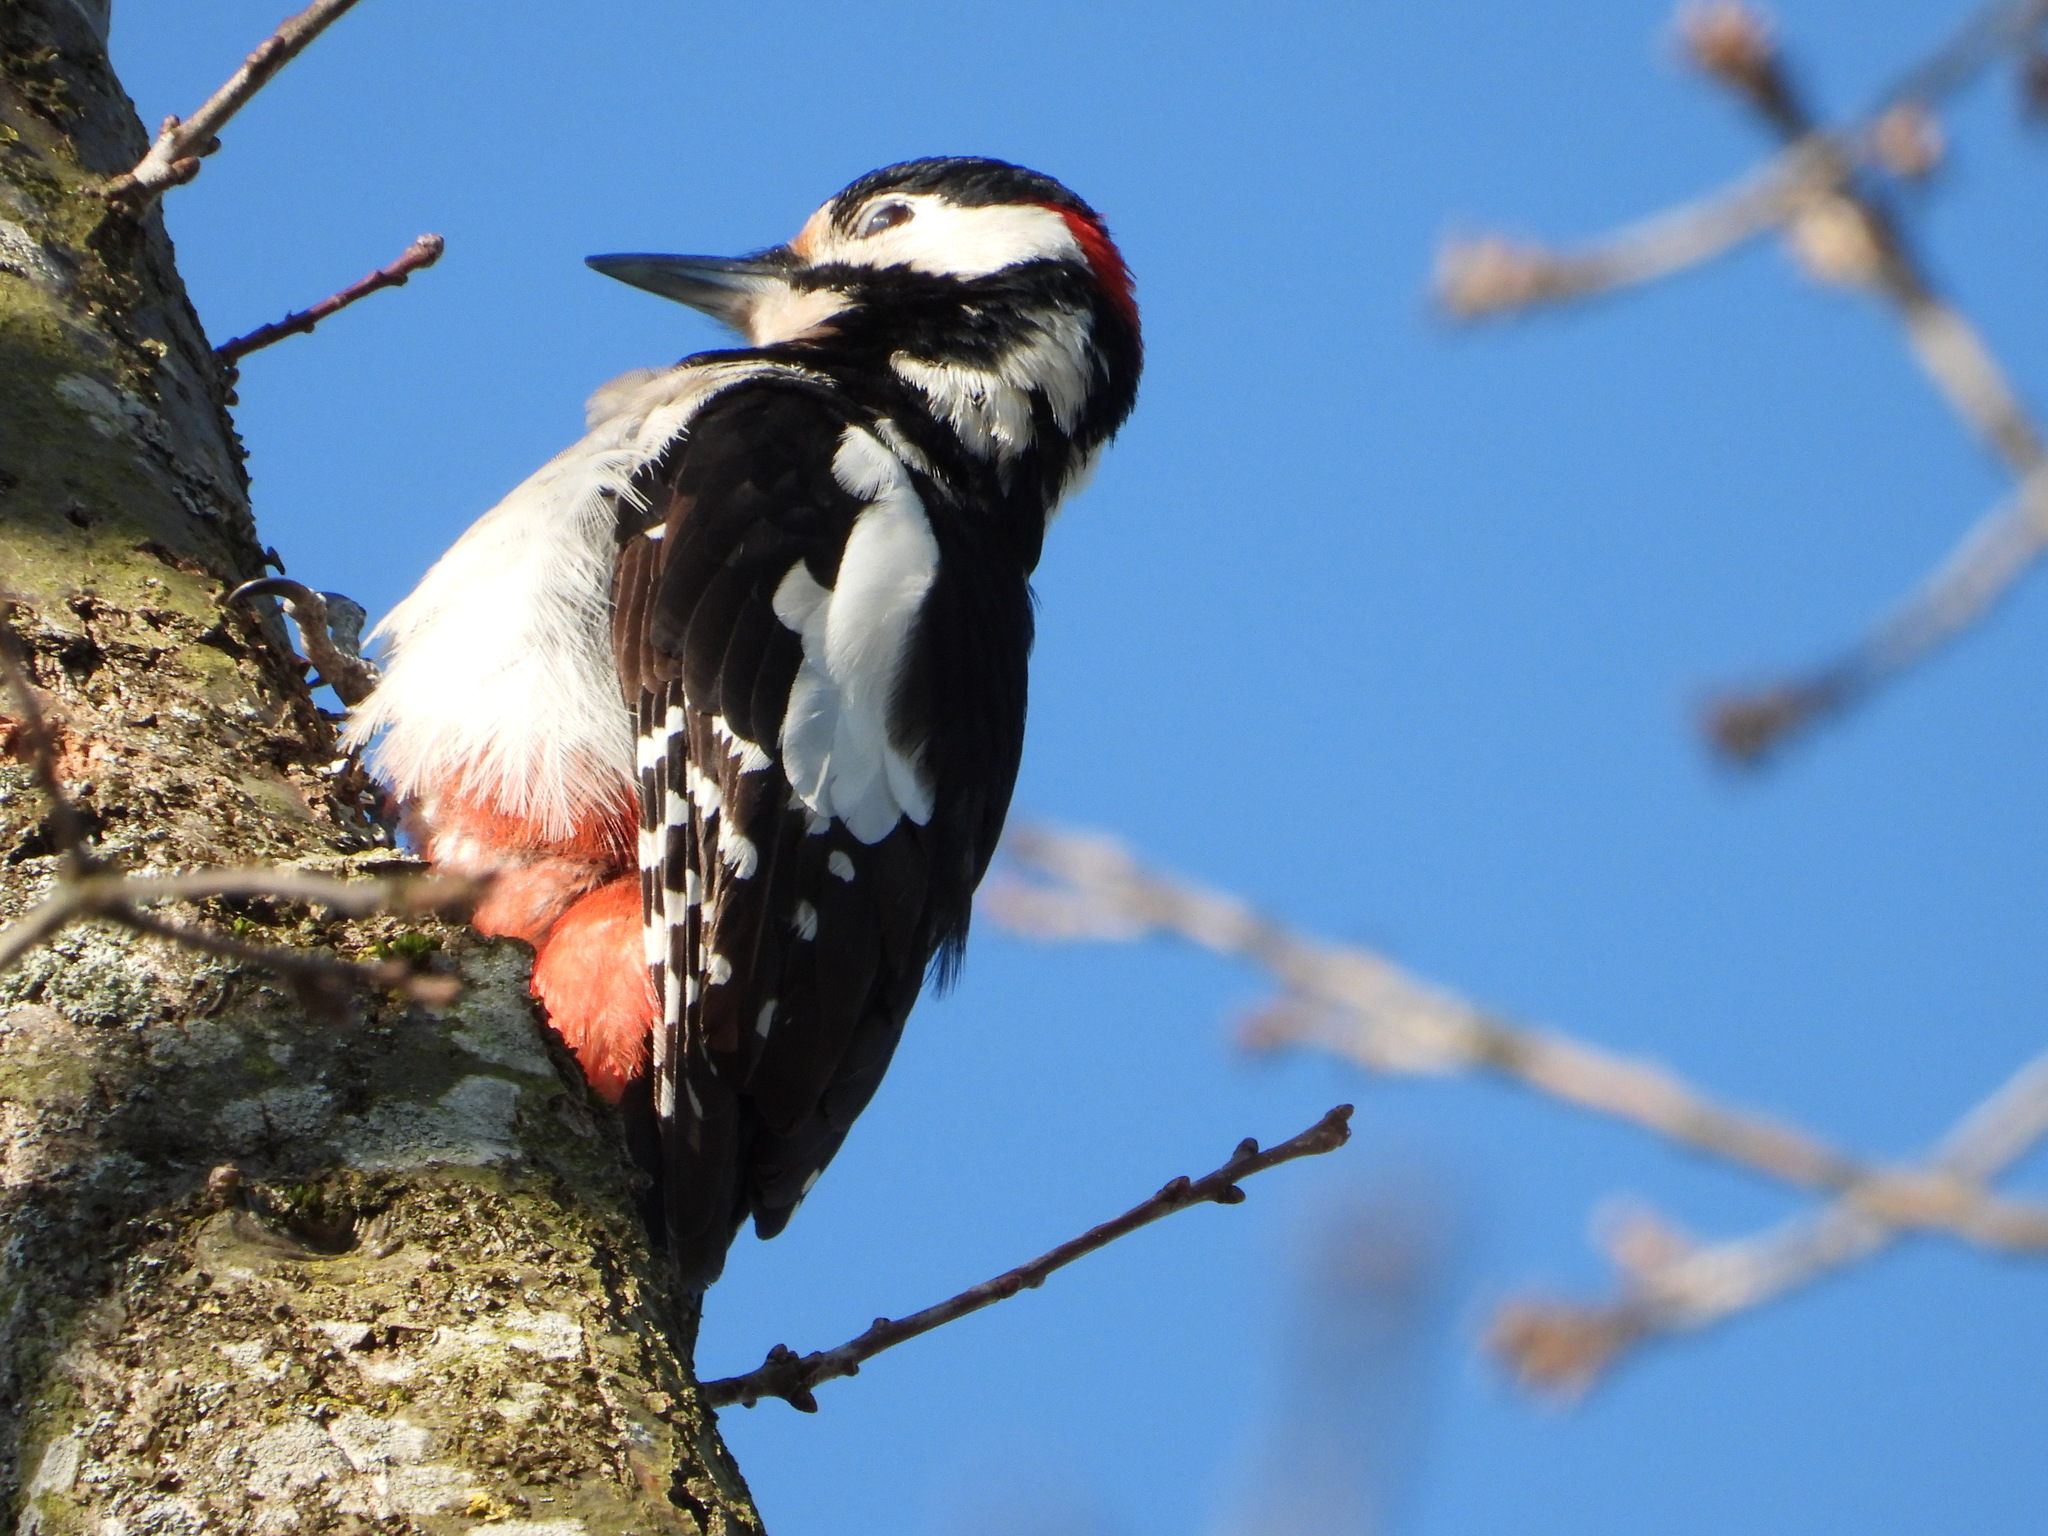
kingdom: Animalia
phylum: Chordata
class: Aves
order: Piciformes
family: Picidae
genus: Dendrocopos
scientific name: Dendrocopos major
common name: Great spotted woodpecker
